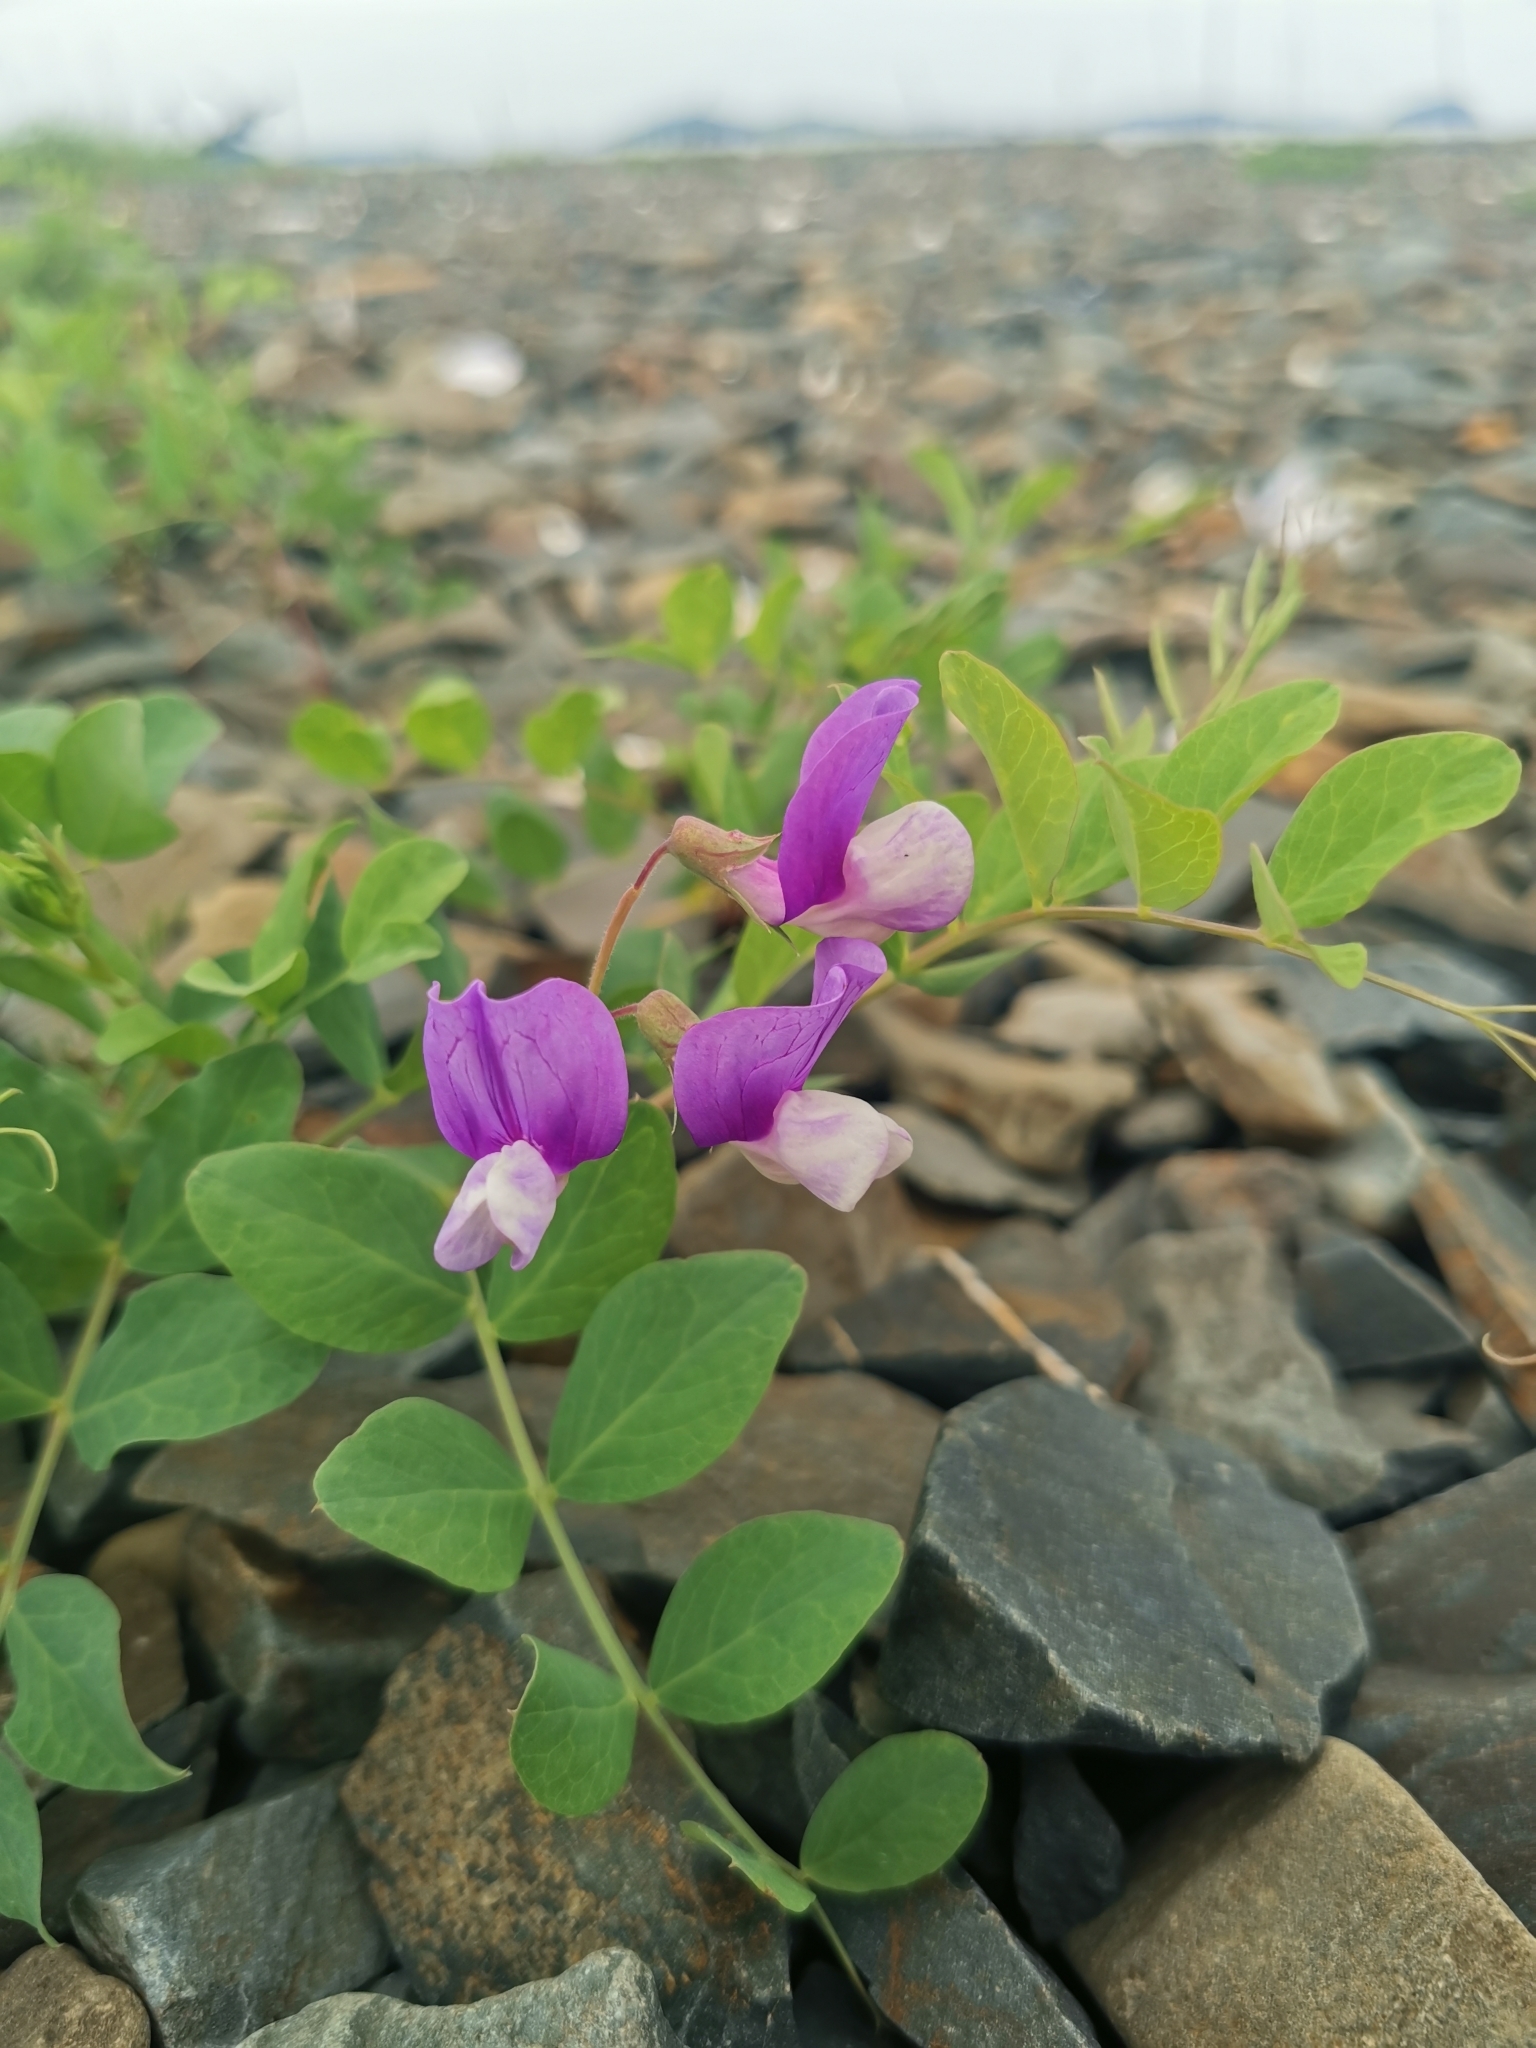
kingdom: Plantae
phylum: Tracheophyta
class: Magnoliopsida
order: Fabales
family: Fabaceae
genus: Lathyrus
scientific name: Lathyrus japonicus
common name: Sea pea
